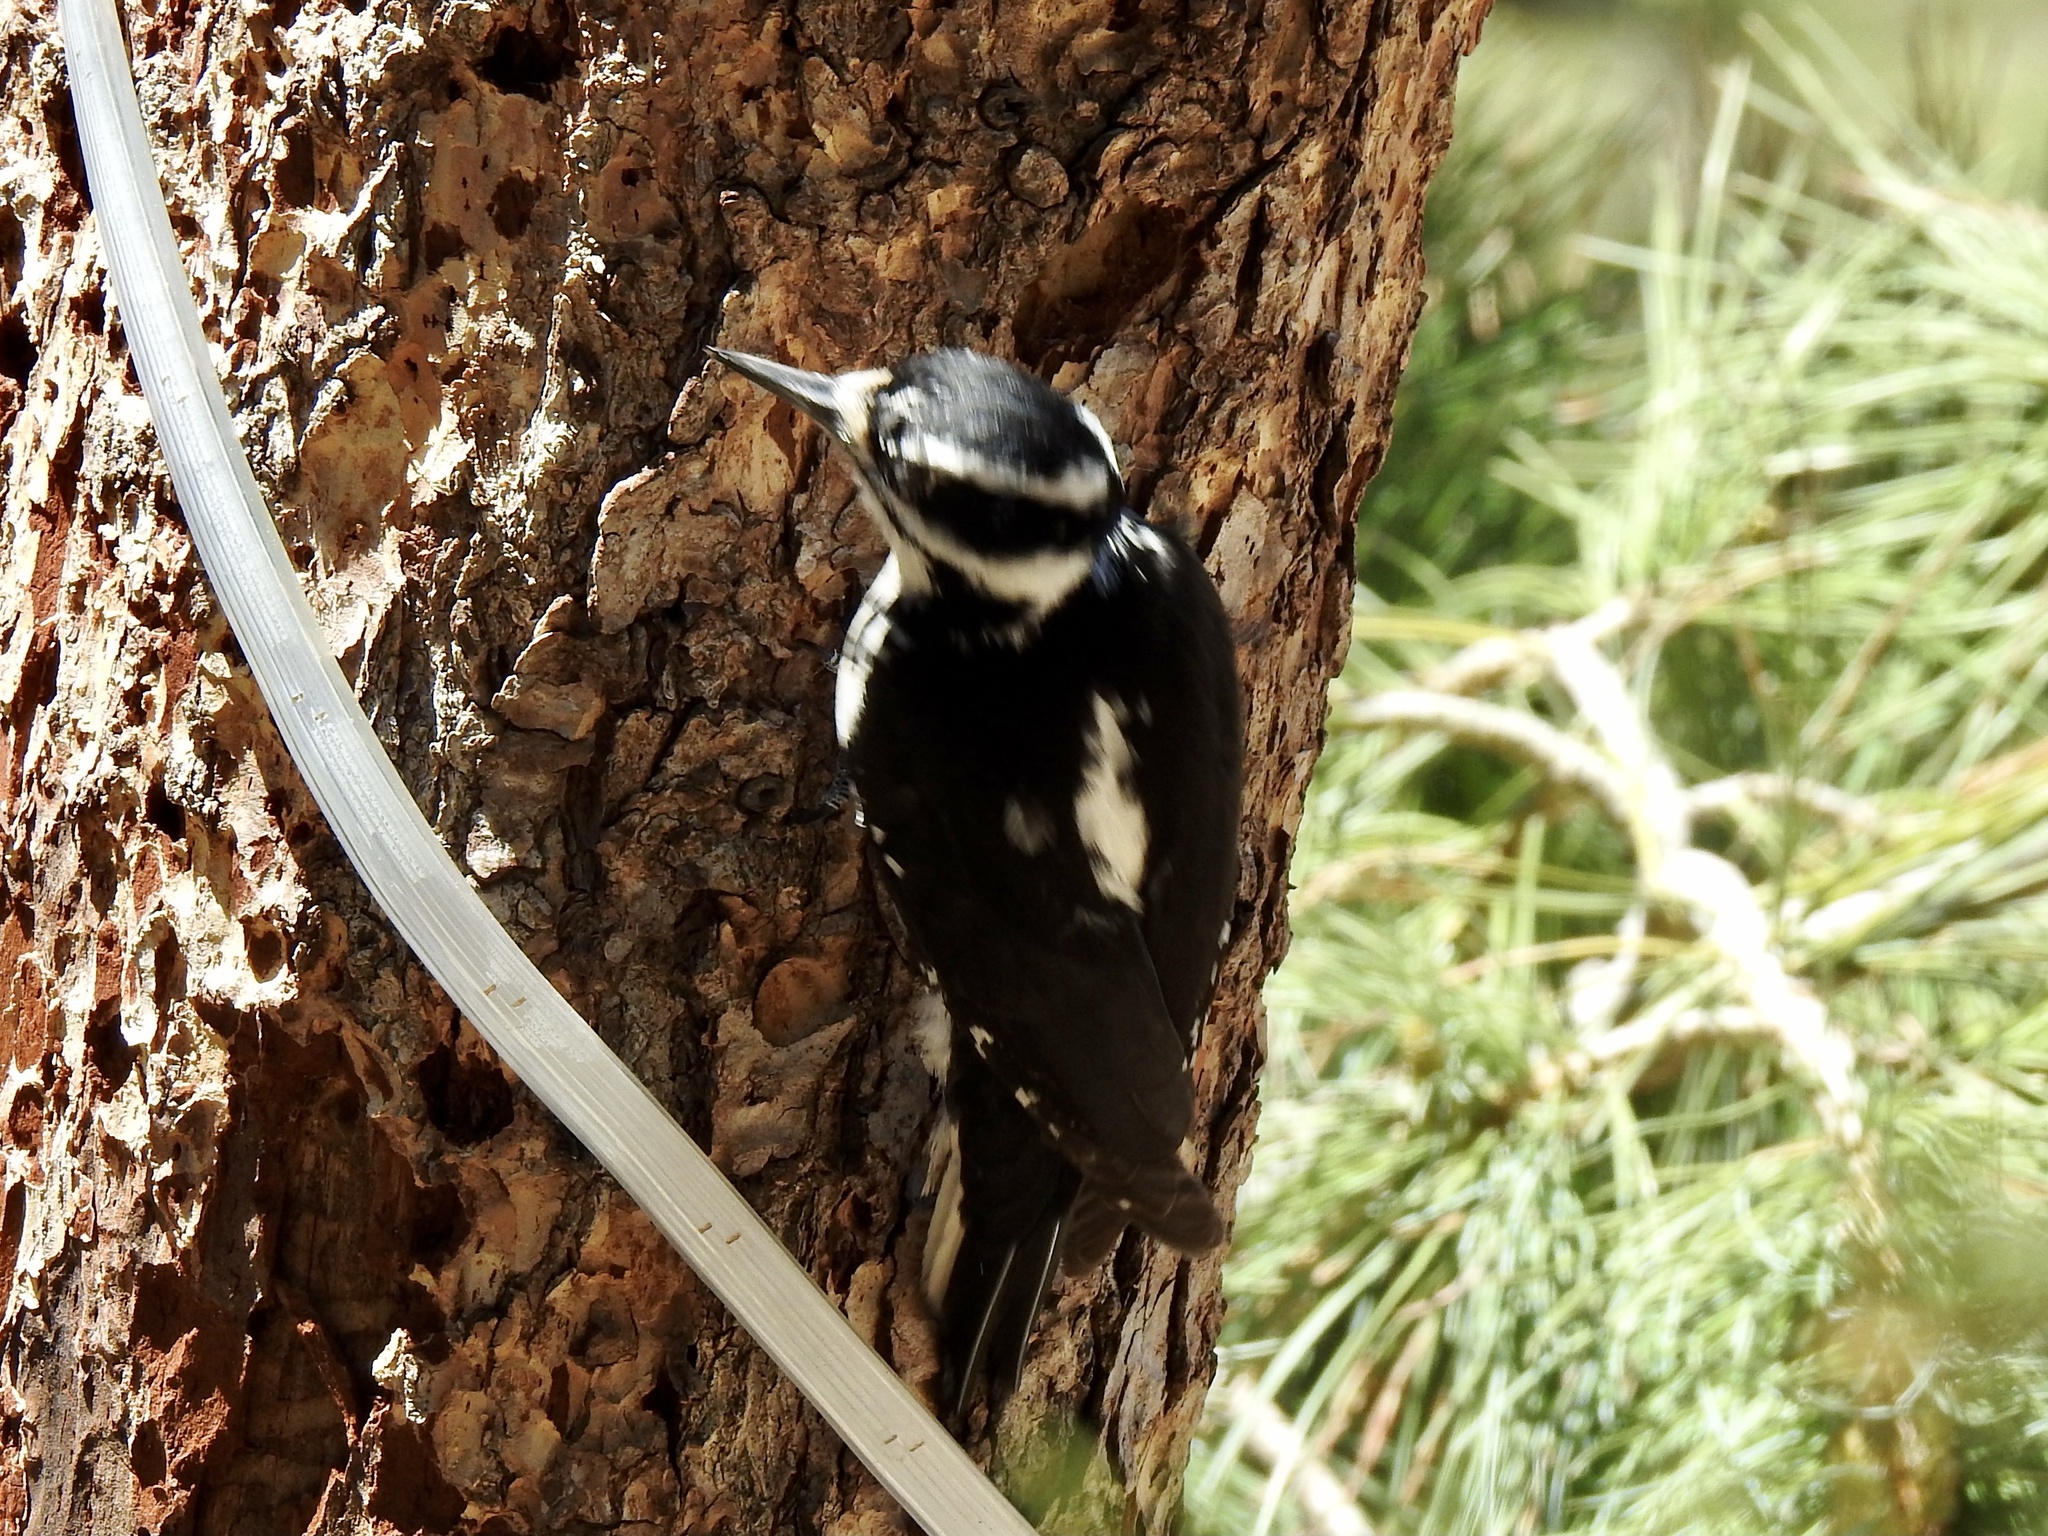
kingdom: Animalia
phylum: Chordata
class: Aves
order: Piciformes
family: Picidae
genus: Leuconotopicus
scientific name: Leuconotopicus villosus
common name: Hairy woodpecker
